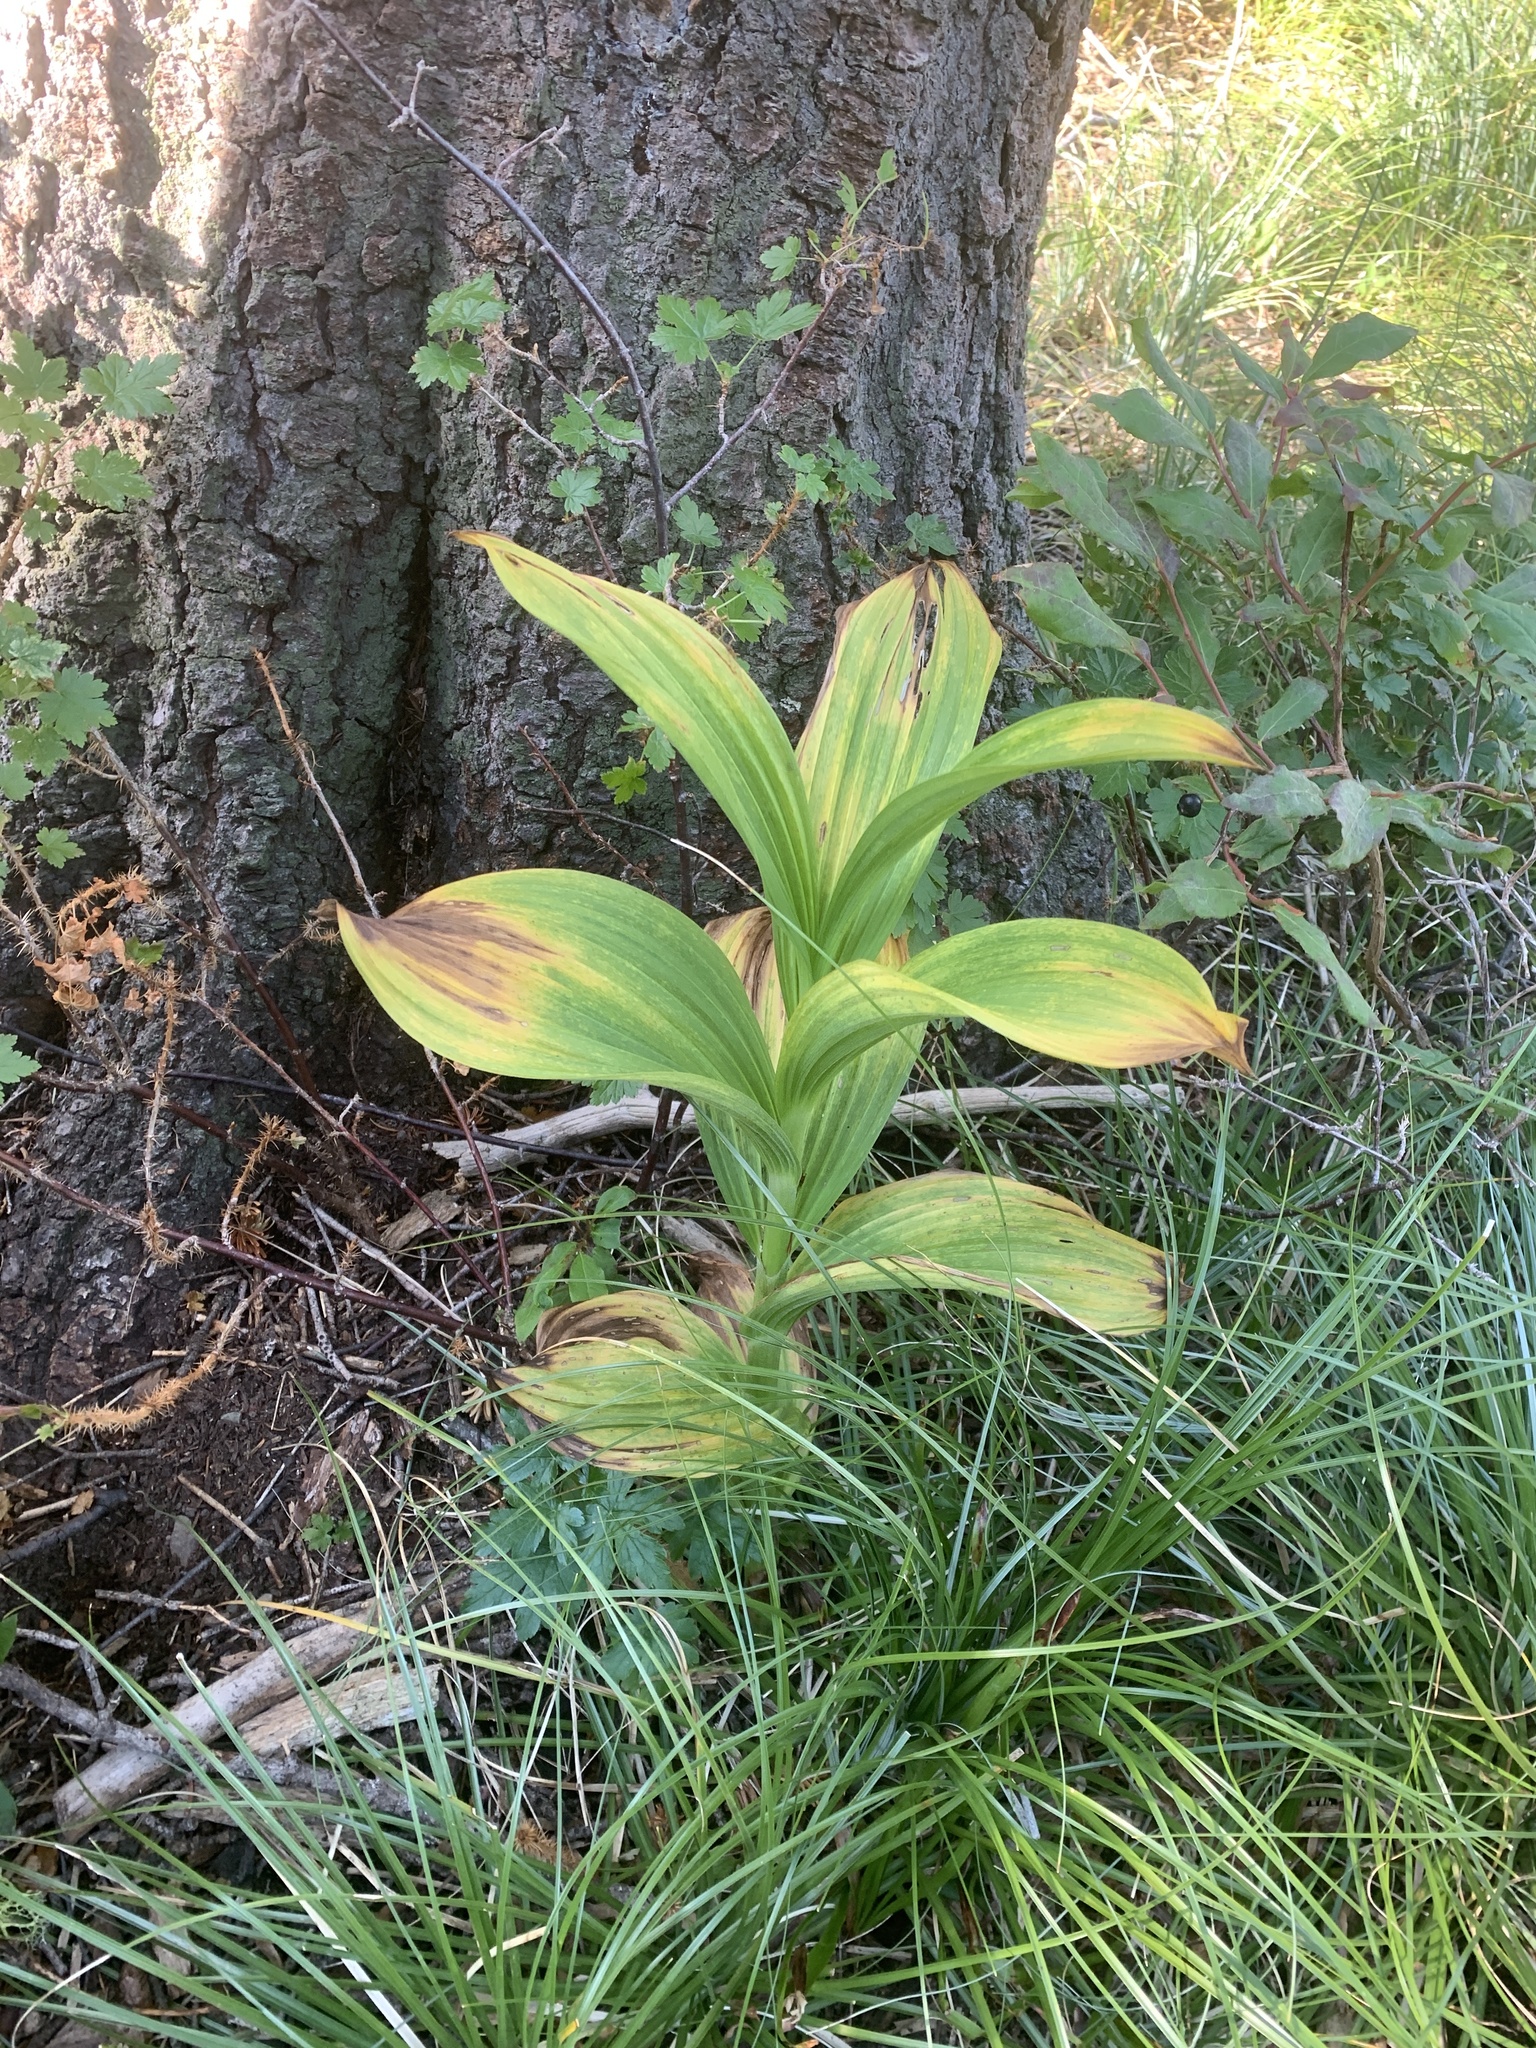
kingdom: Plantae
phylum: Tracheophyta
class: Liliopsida
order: Liliales
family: Melanthiaceae
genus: Veratrum
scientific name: Veratrum viride
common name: American false hellebore
